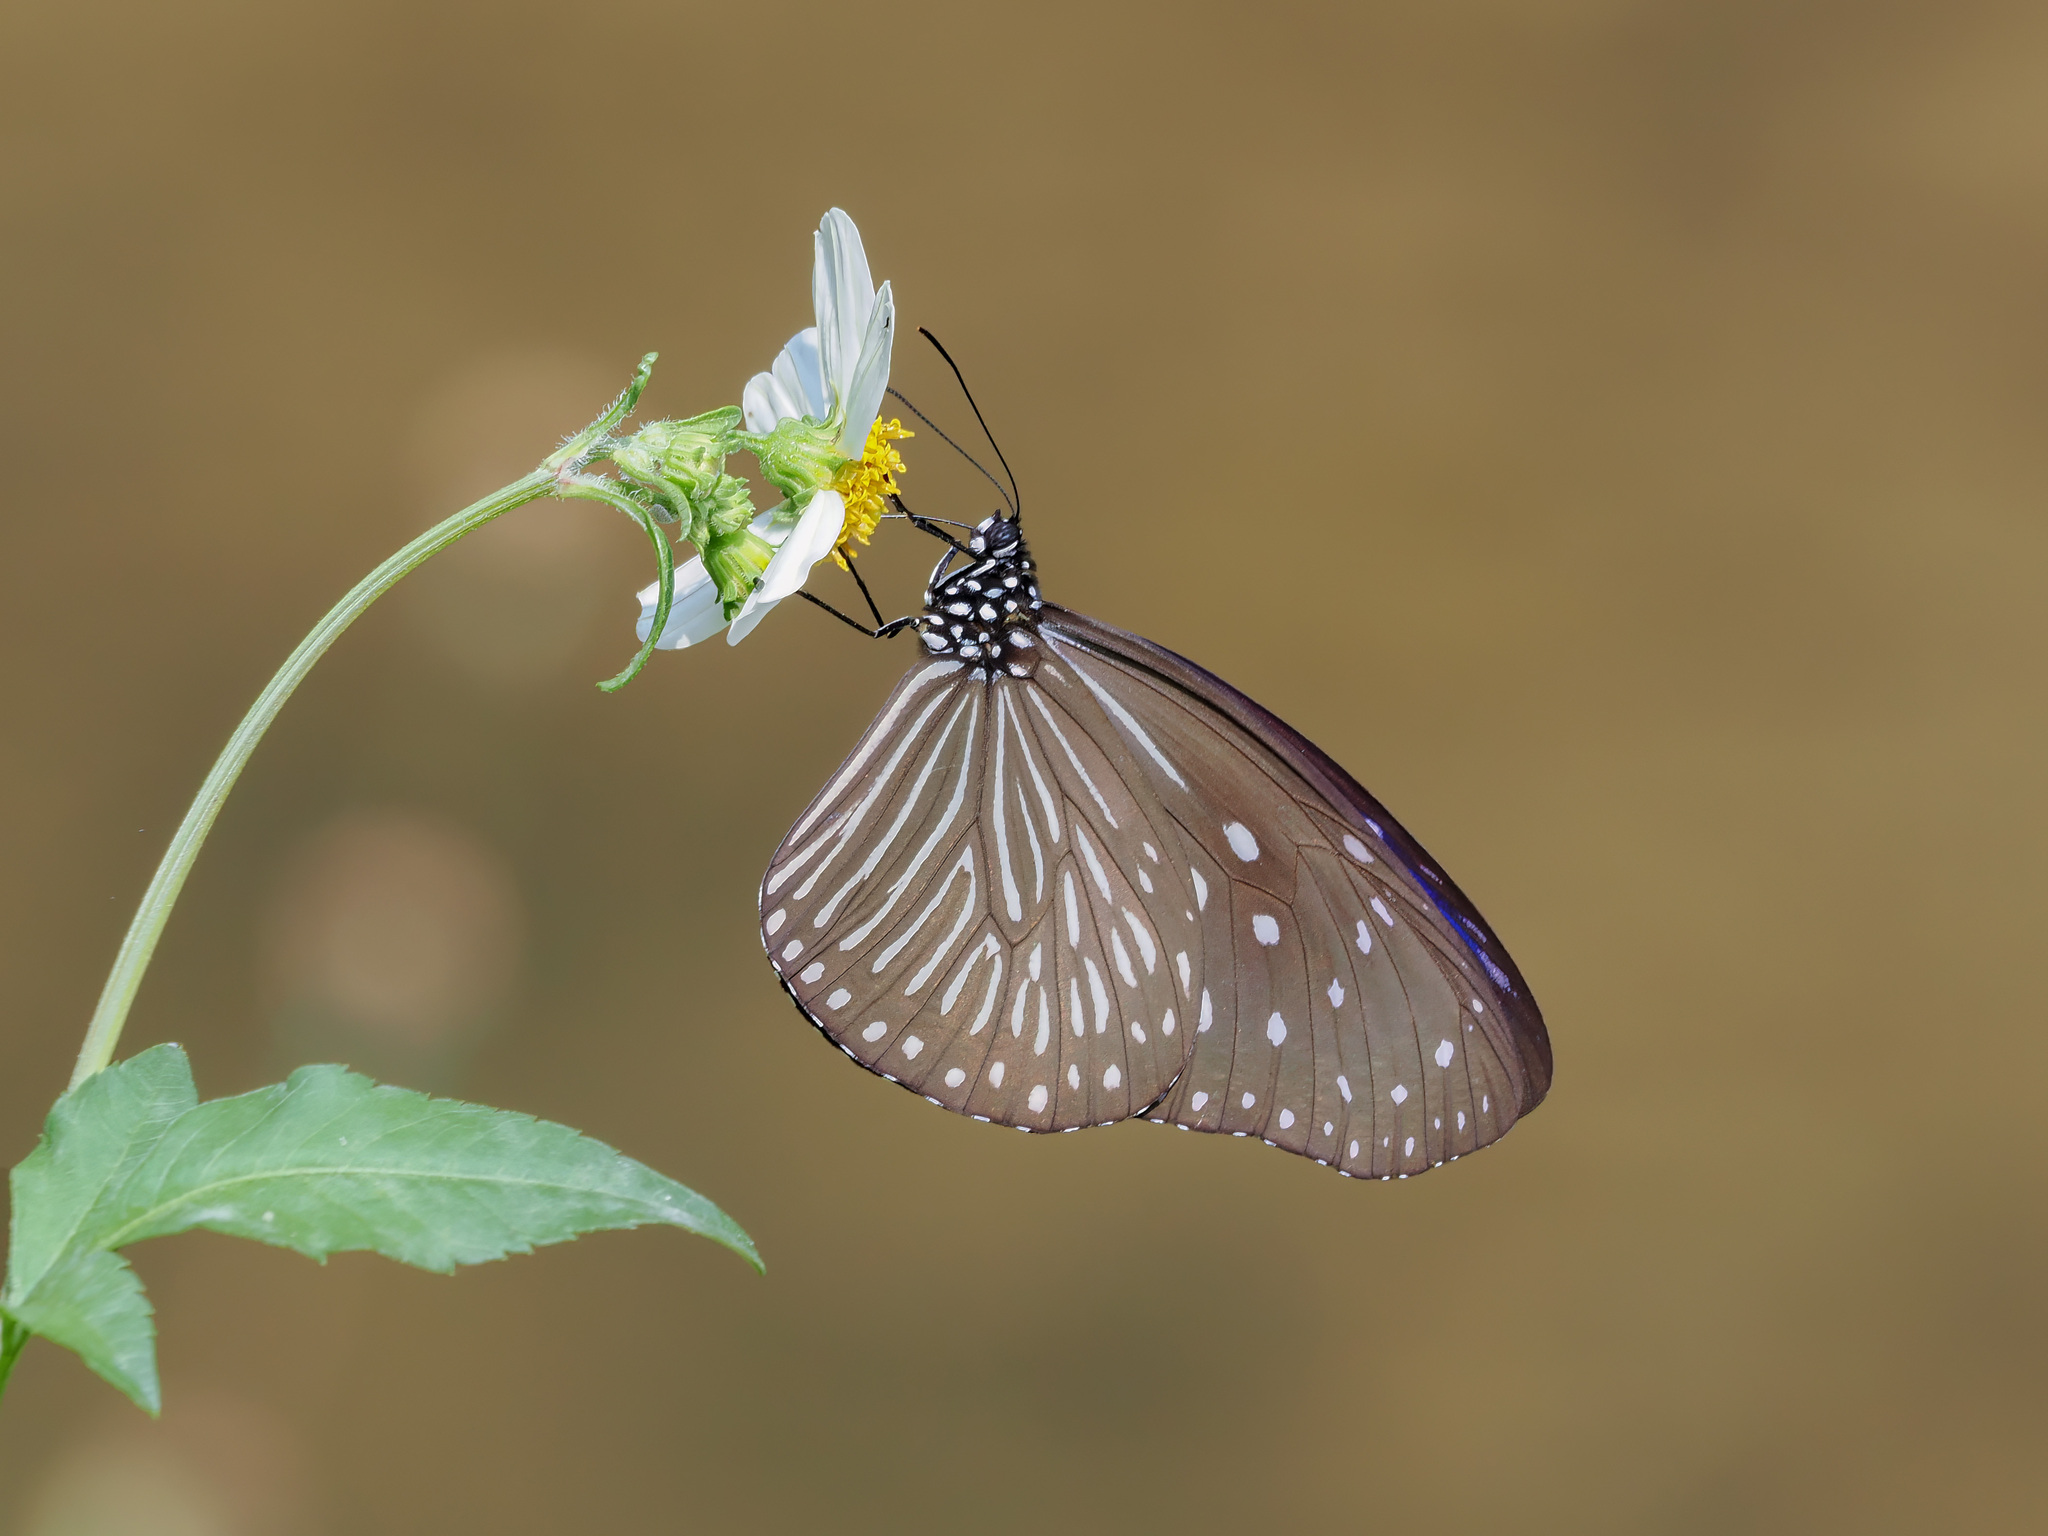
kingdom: Animalia
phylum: Arthropoda
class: Insecta
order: Lepidoptera
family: Nymphalidae
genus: Euploea
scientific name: Euploea mulciber
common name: Striped blue crow butterfly
